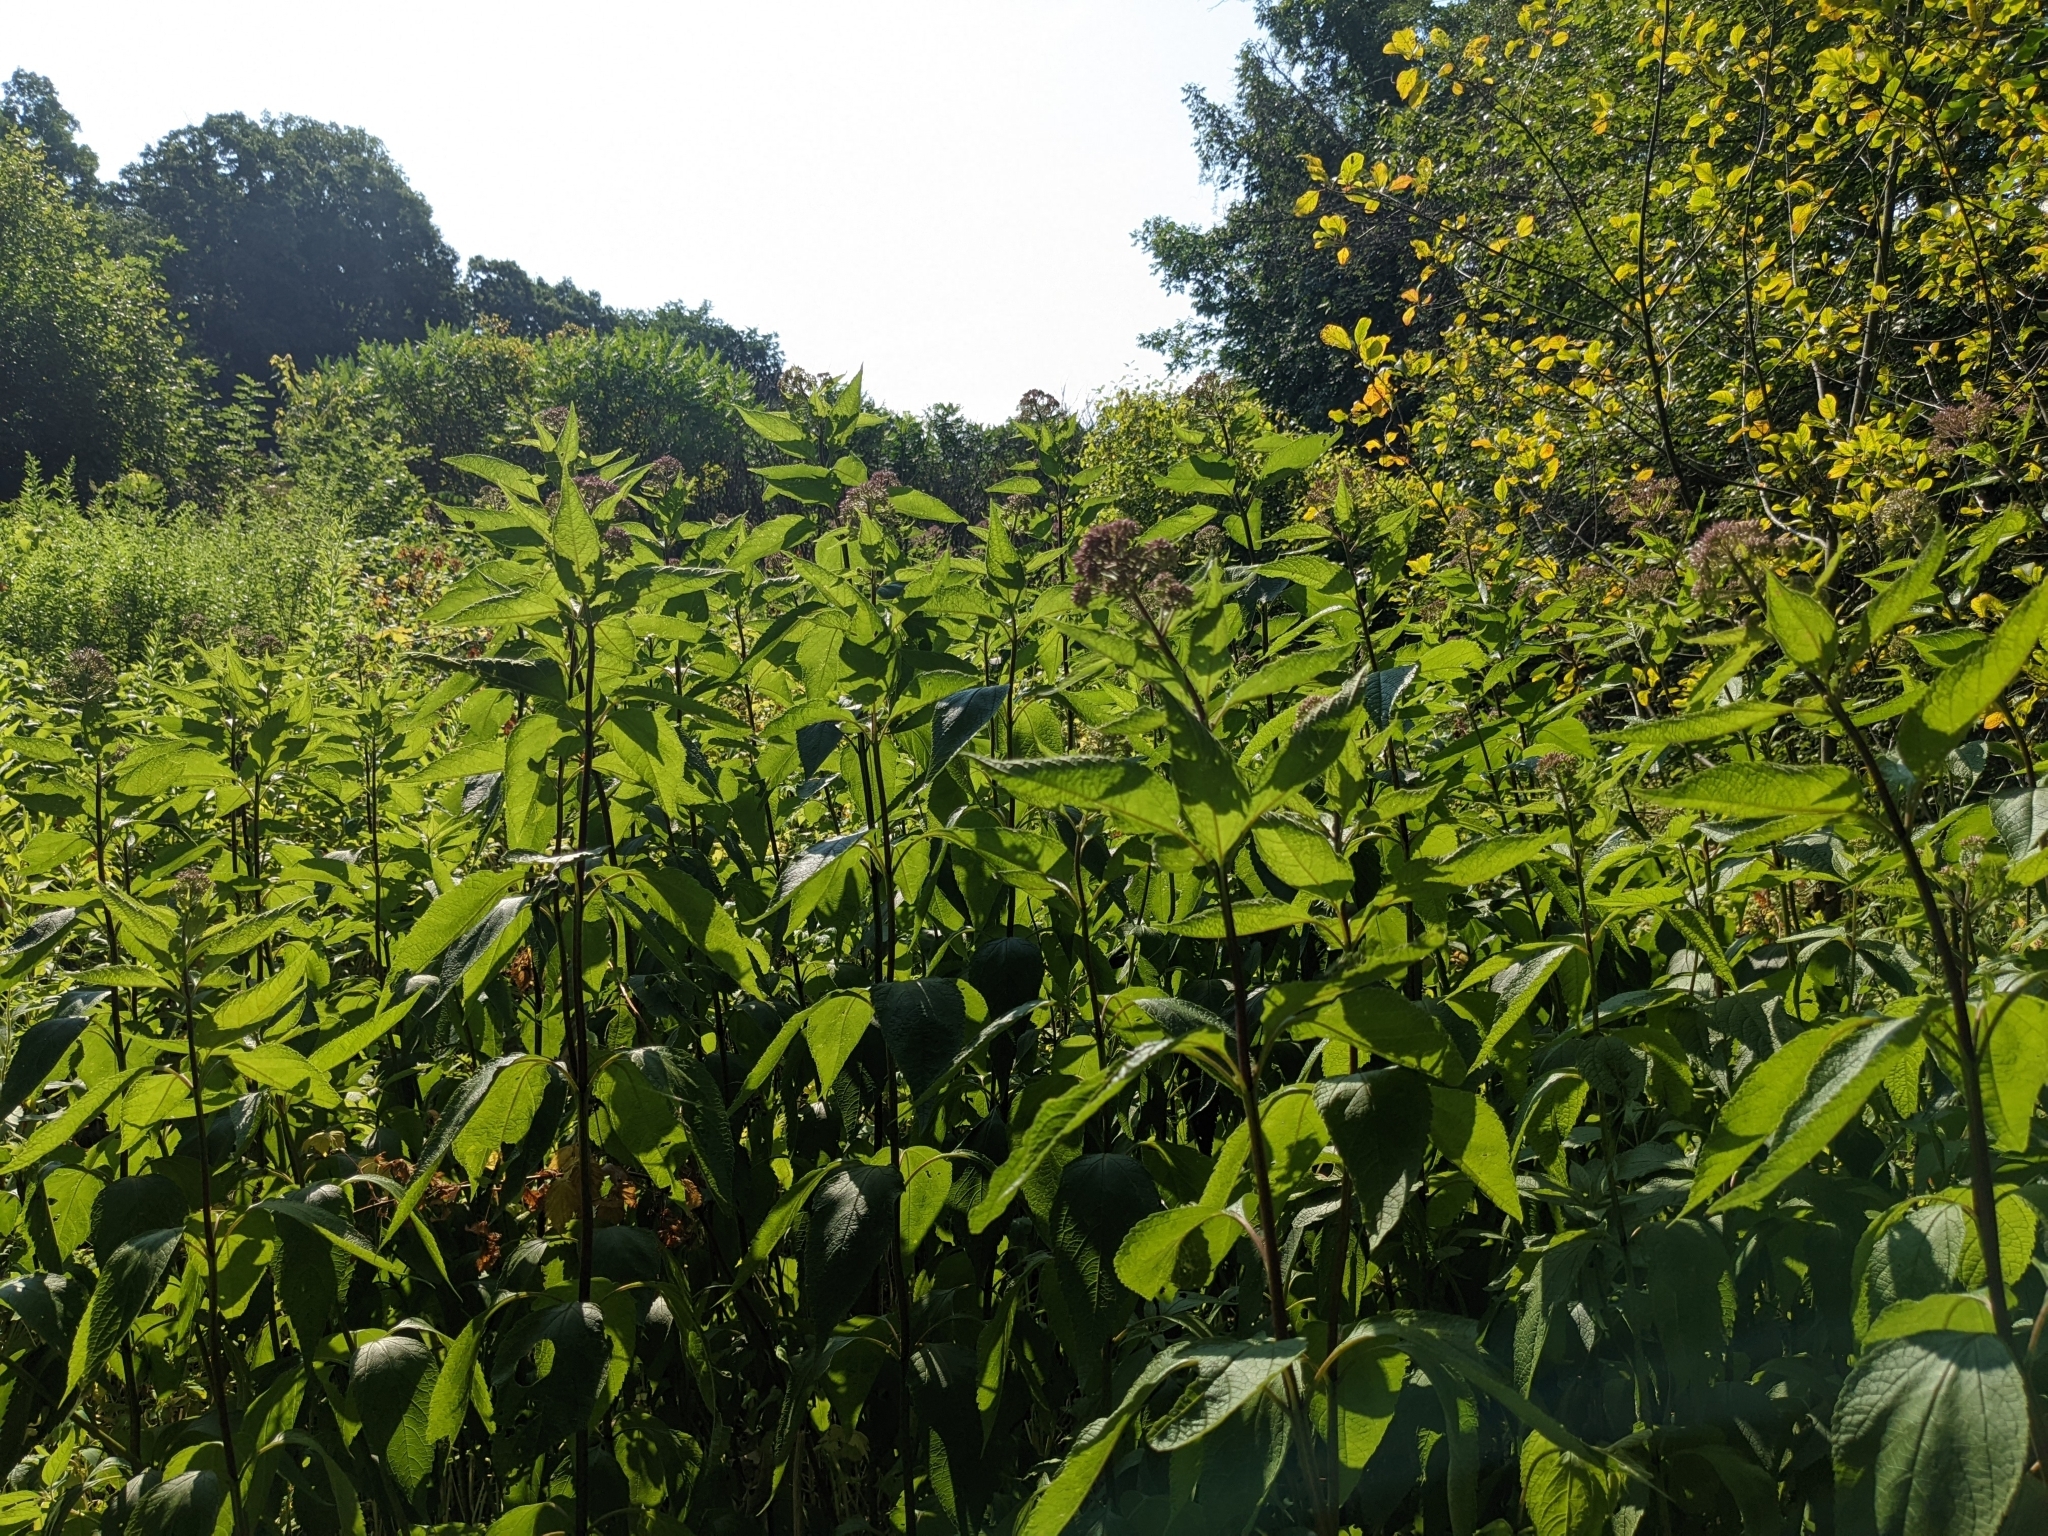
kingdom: Plantae
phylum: Tracheophyta
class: Magnoliopsida
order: Asterales
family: Asteraceae
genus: Eutrochium
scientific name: Eutrochium dubium
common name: Coastal plain joe pye weed
